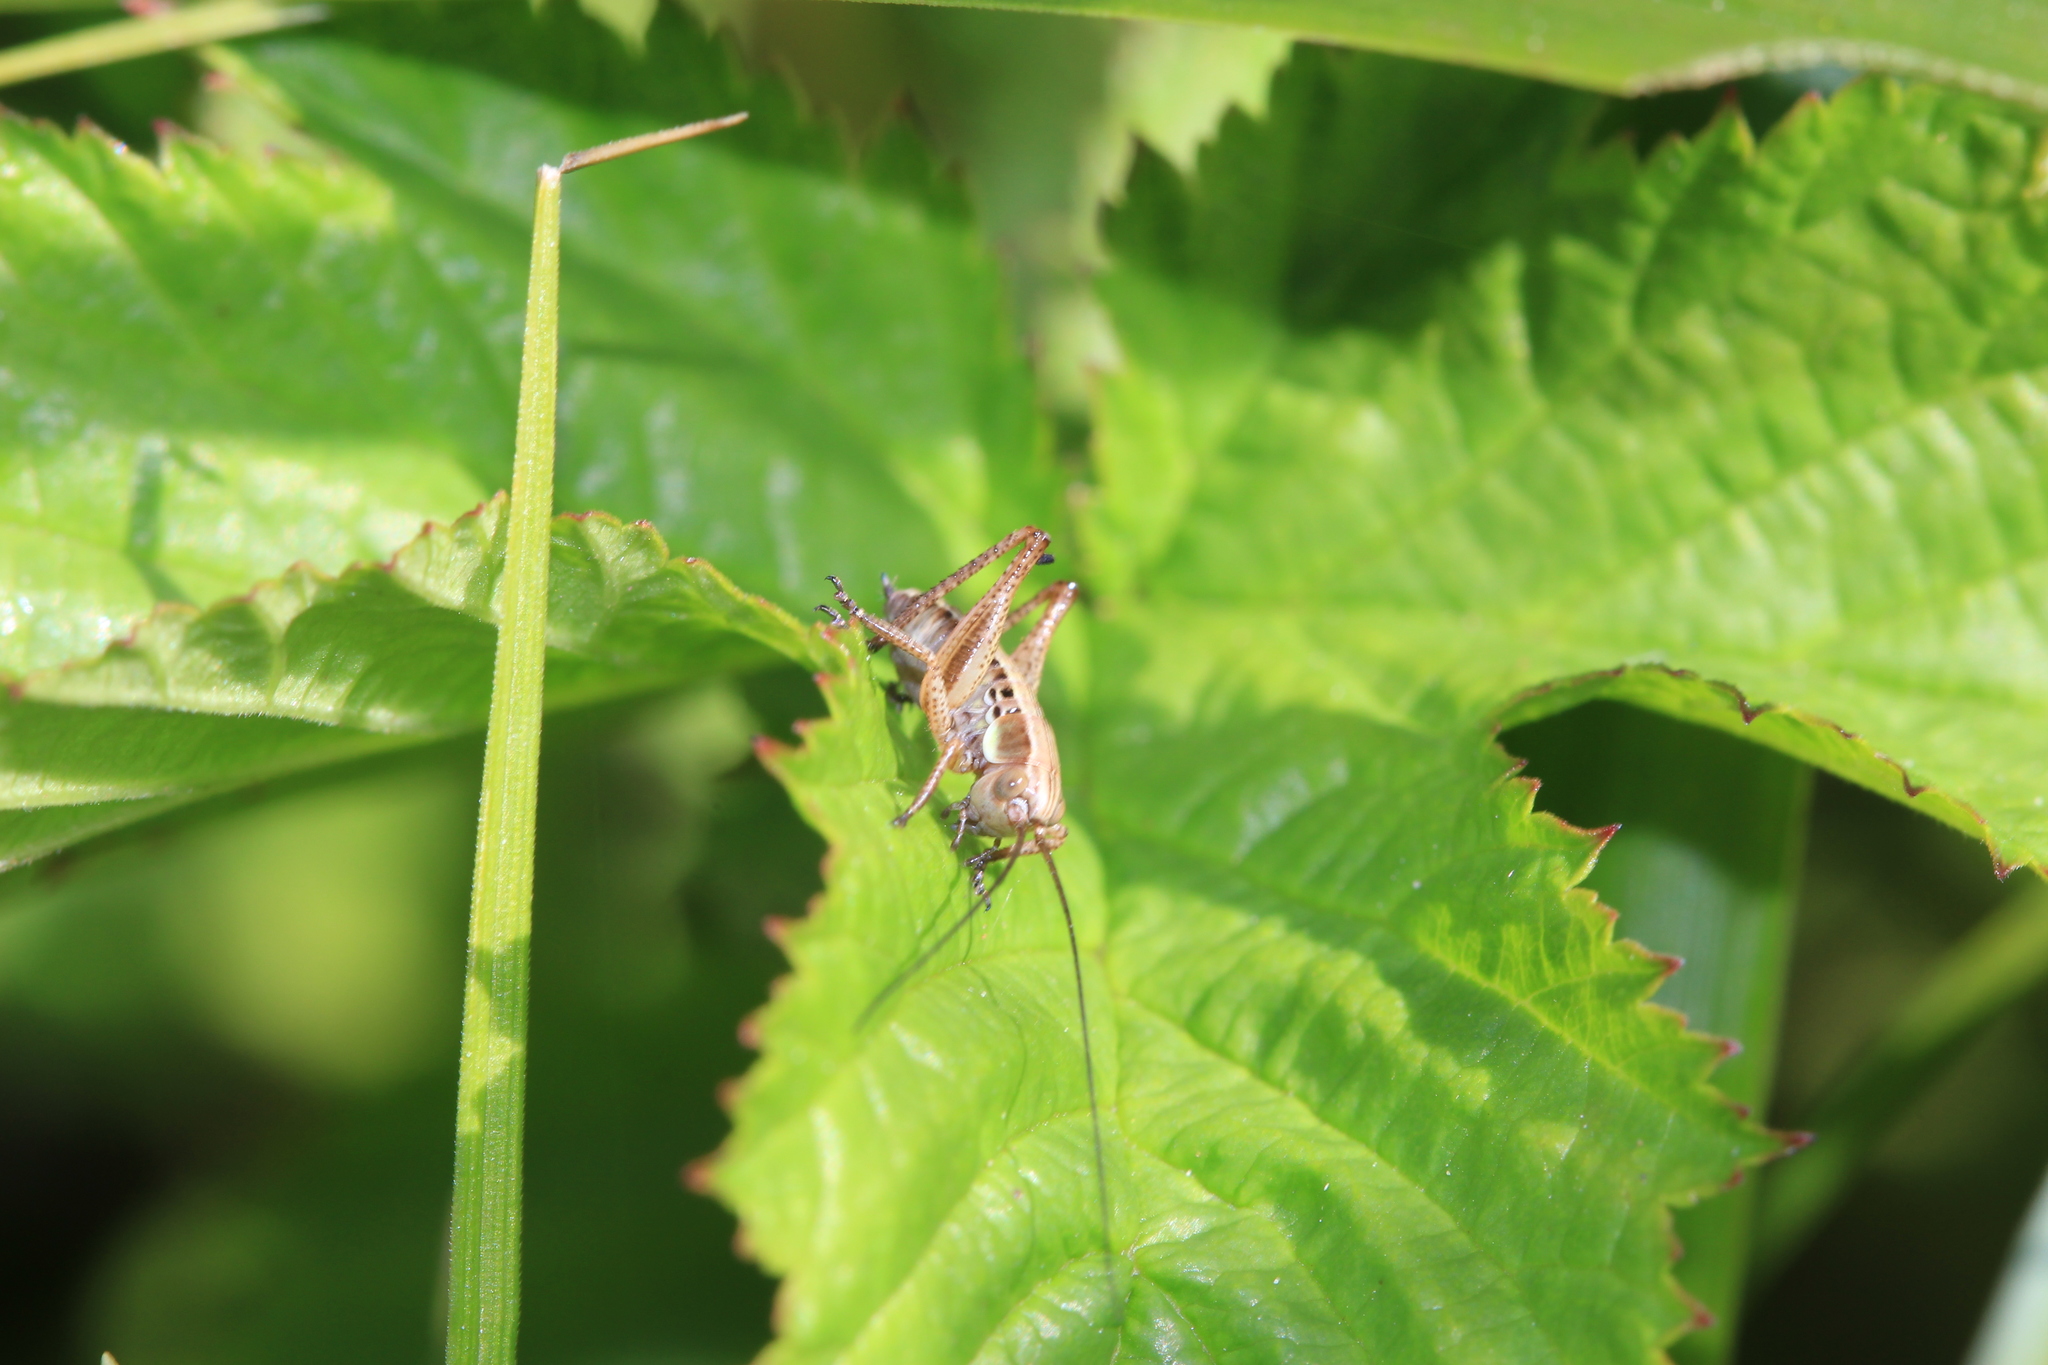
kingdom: Animalia
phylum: Arthropoda
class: Insecta
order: Orthoptera
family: Tettigoniidae
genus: Roeseliana
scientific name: Roeseliana roeselii
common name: Roesel's bush cricket
